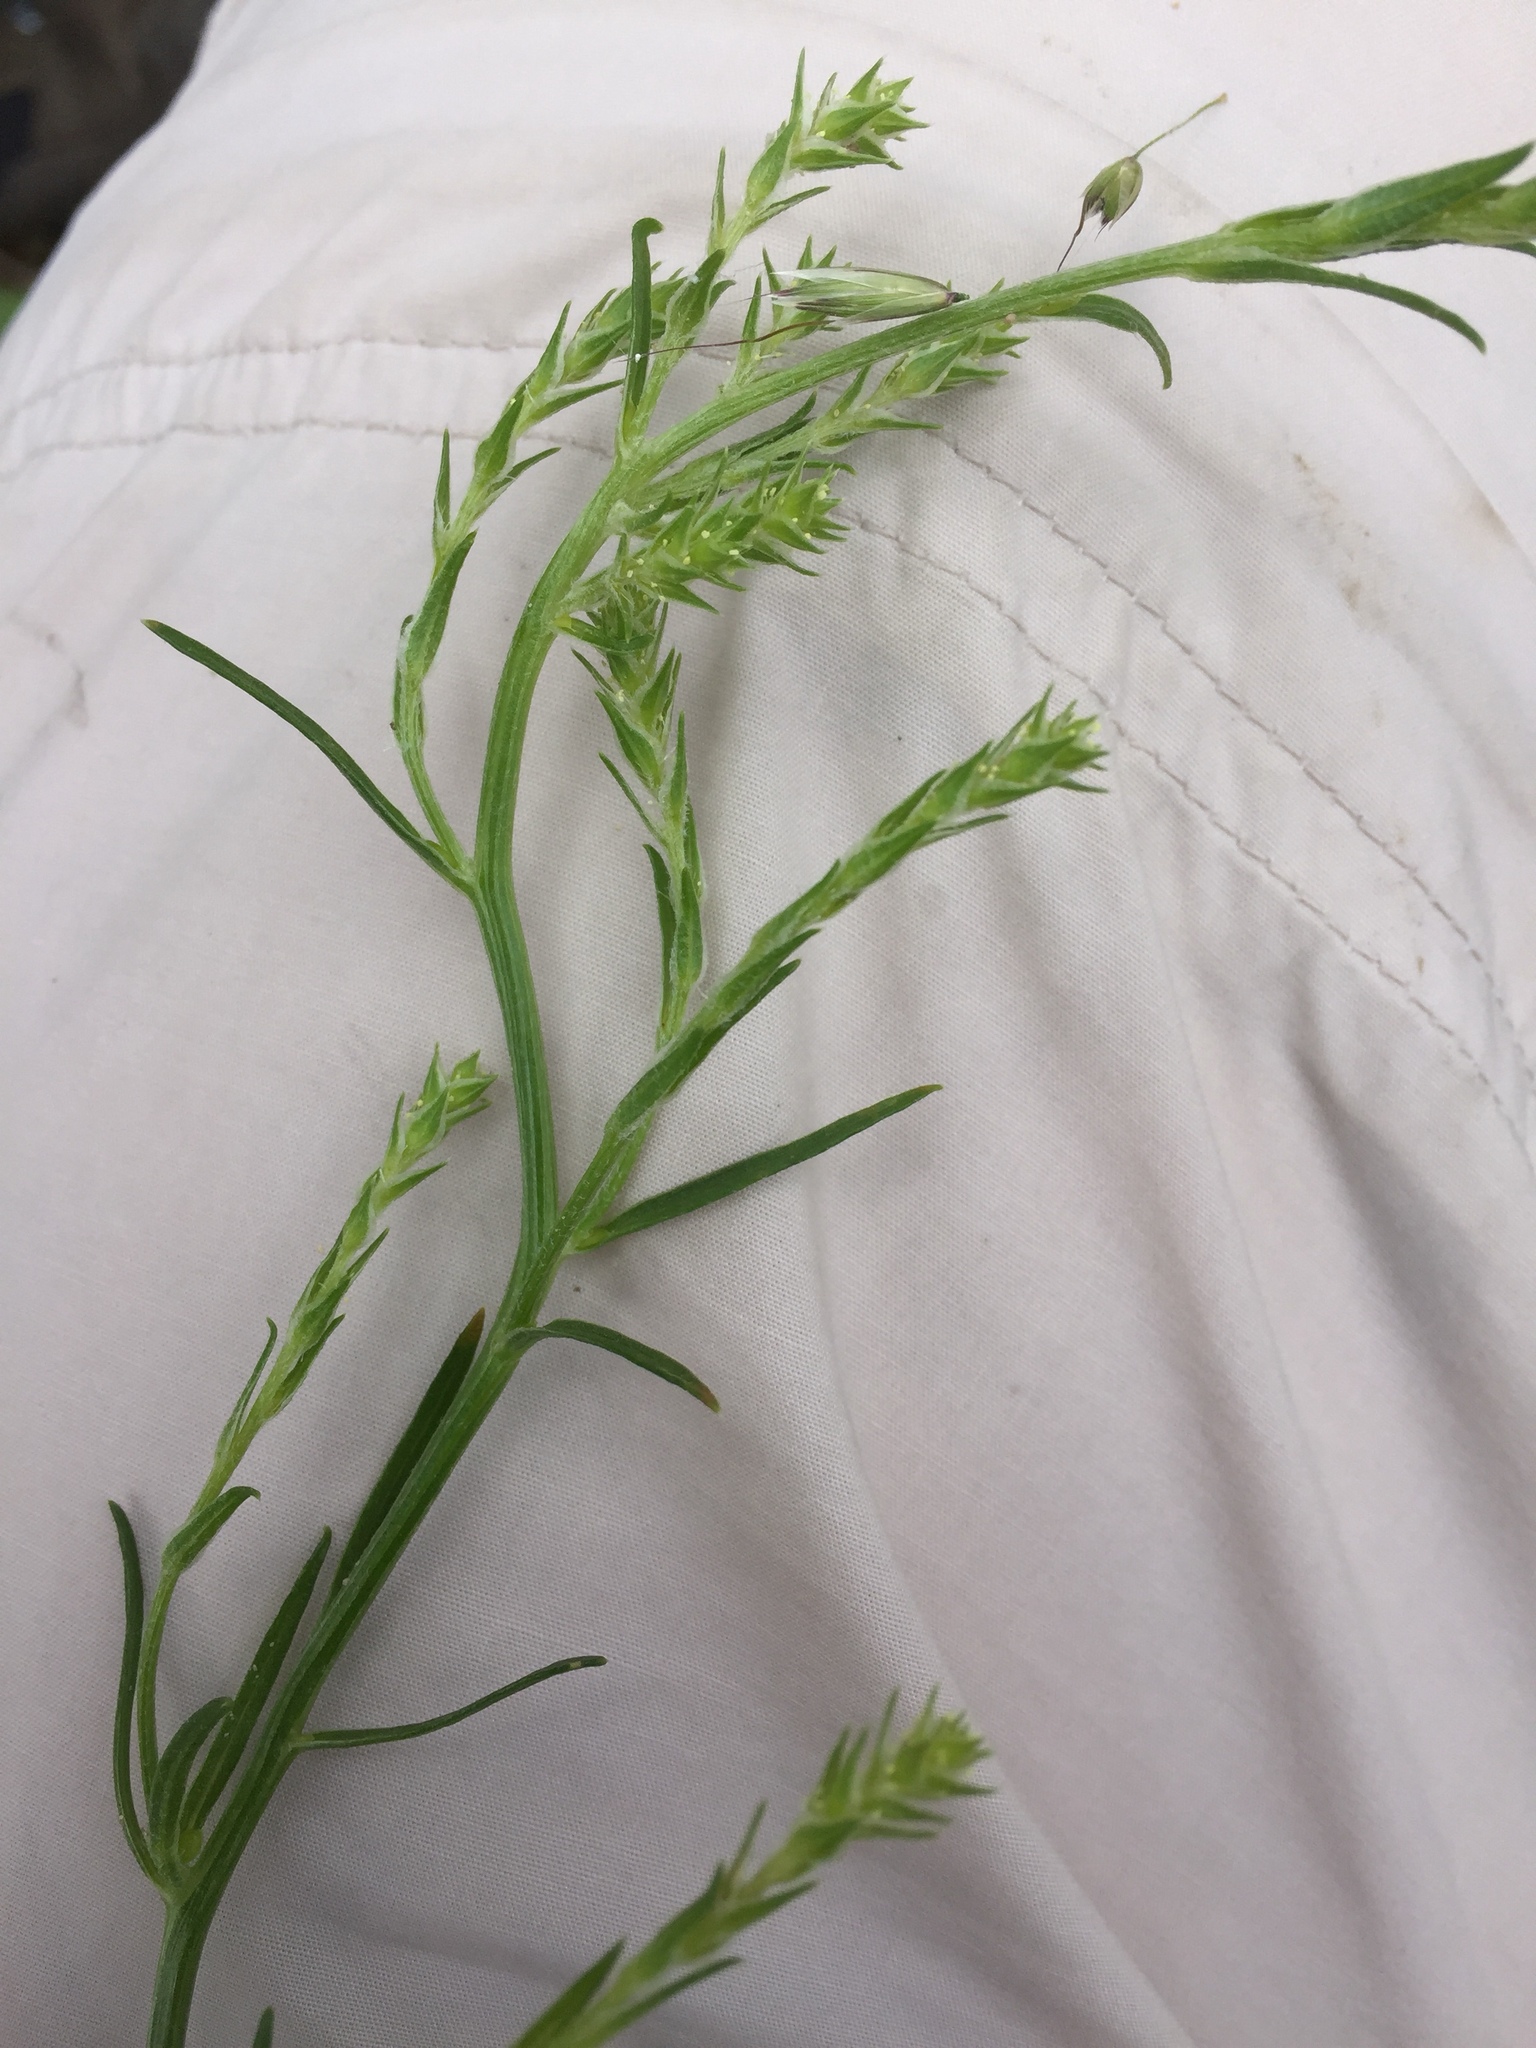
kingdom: Plantae
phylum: Tracheophyta
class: Magnoliopsida
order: Caryophyllales
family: Amaranthaceae
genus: Corispermum
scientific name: Corispermum intermedium
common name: Hyssop-leaved tickseed
